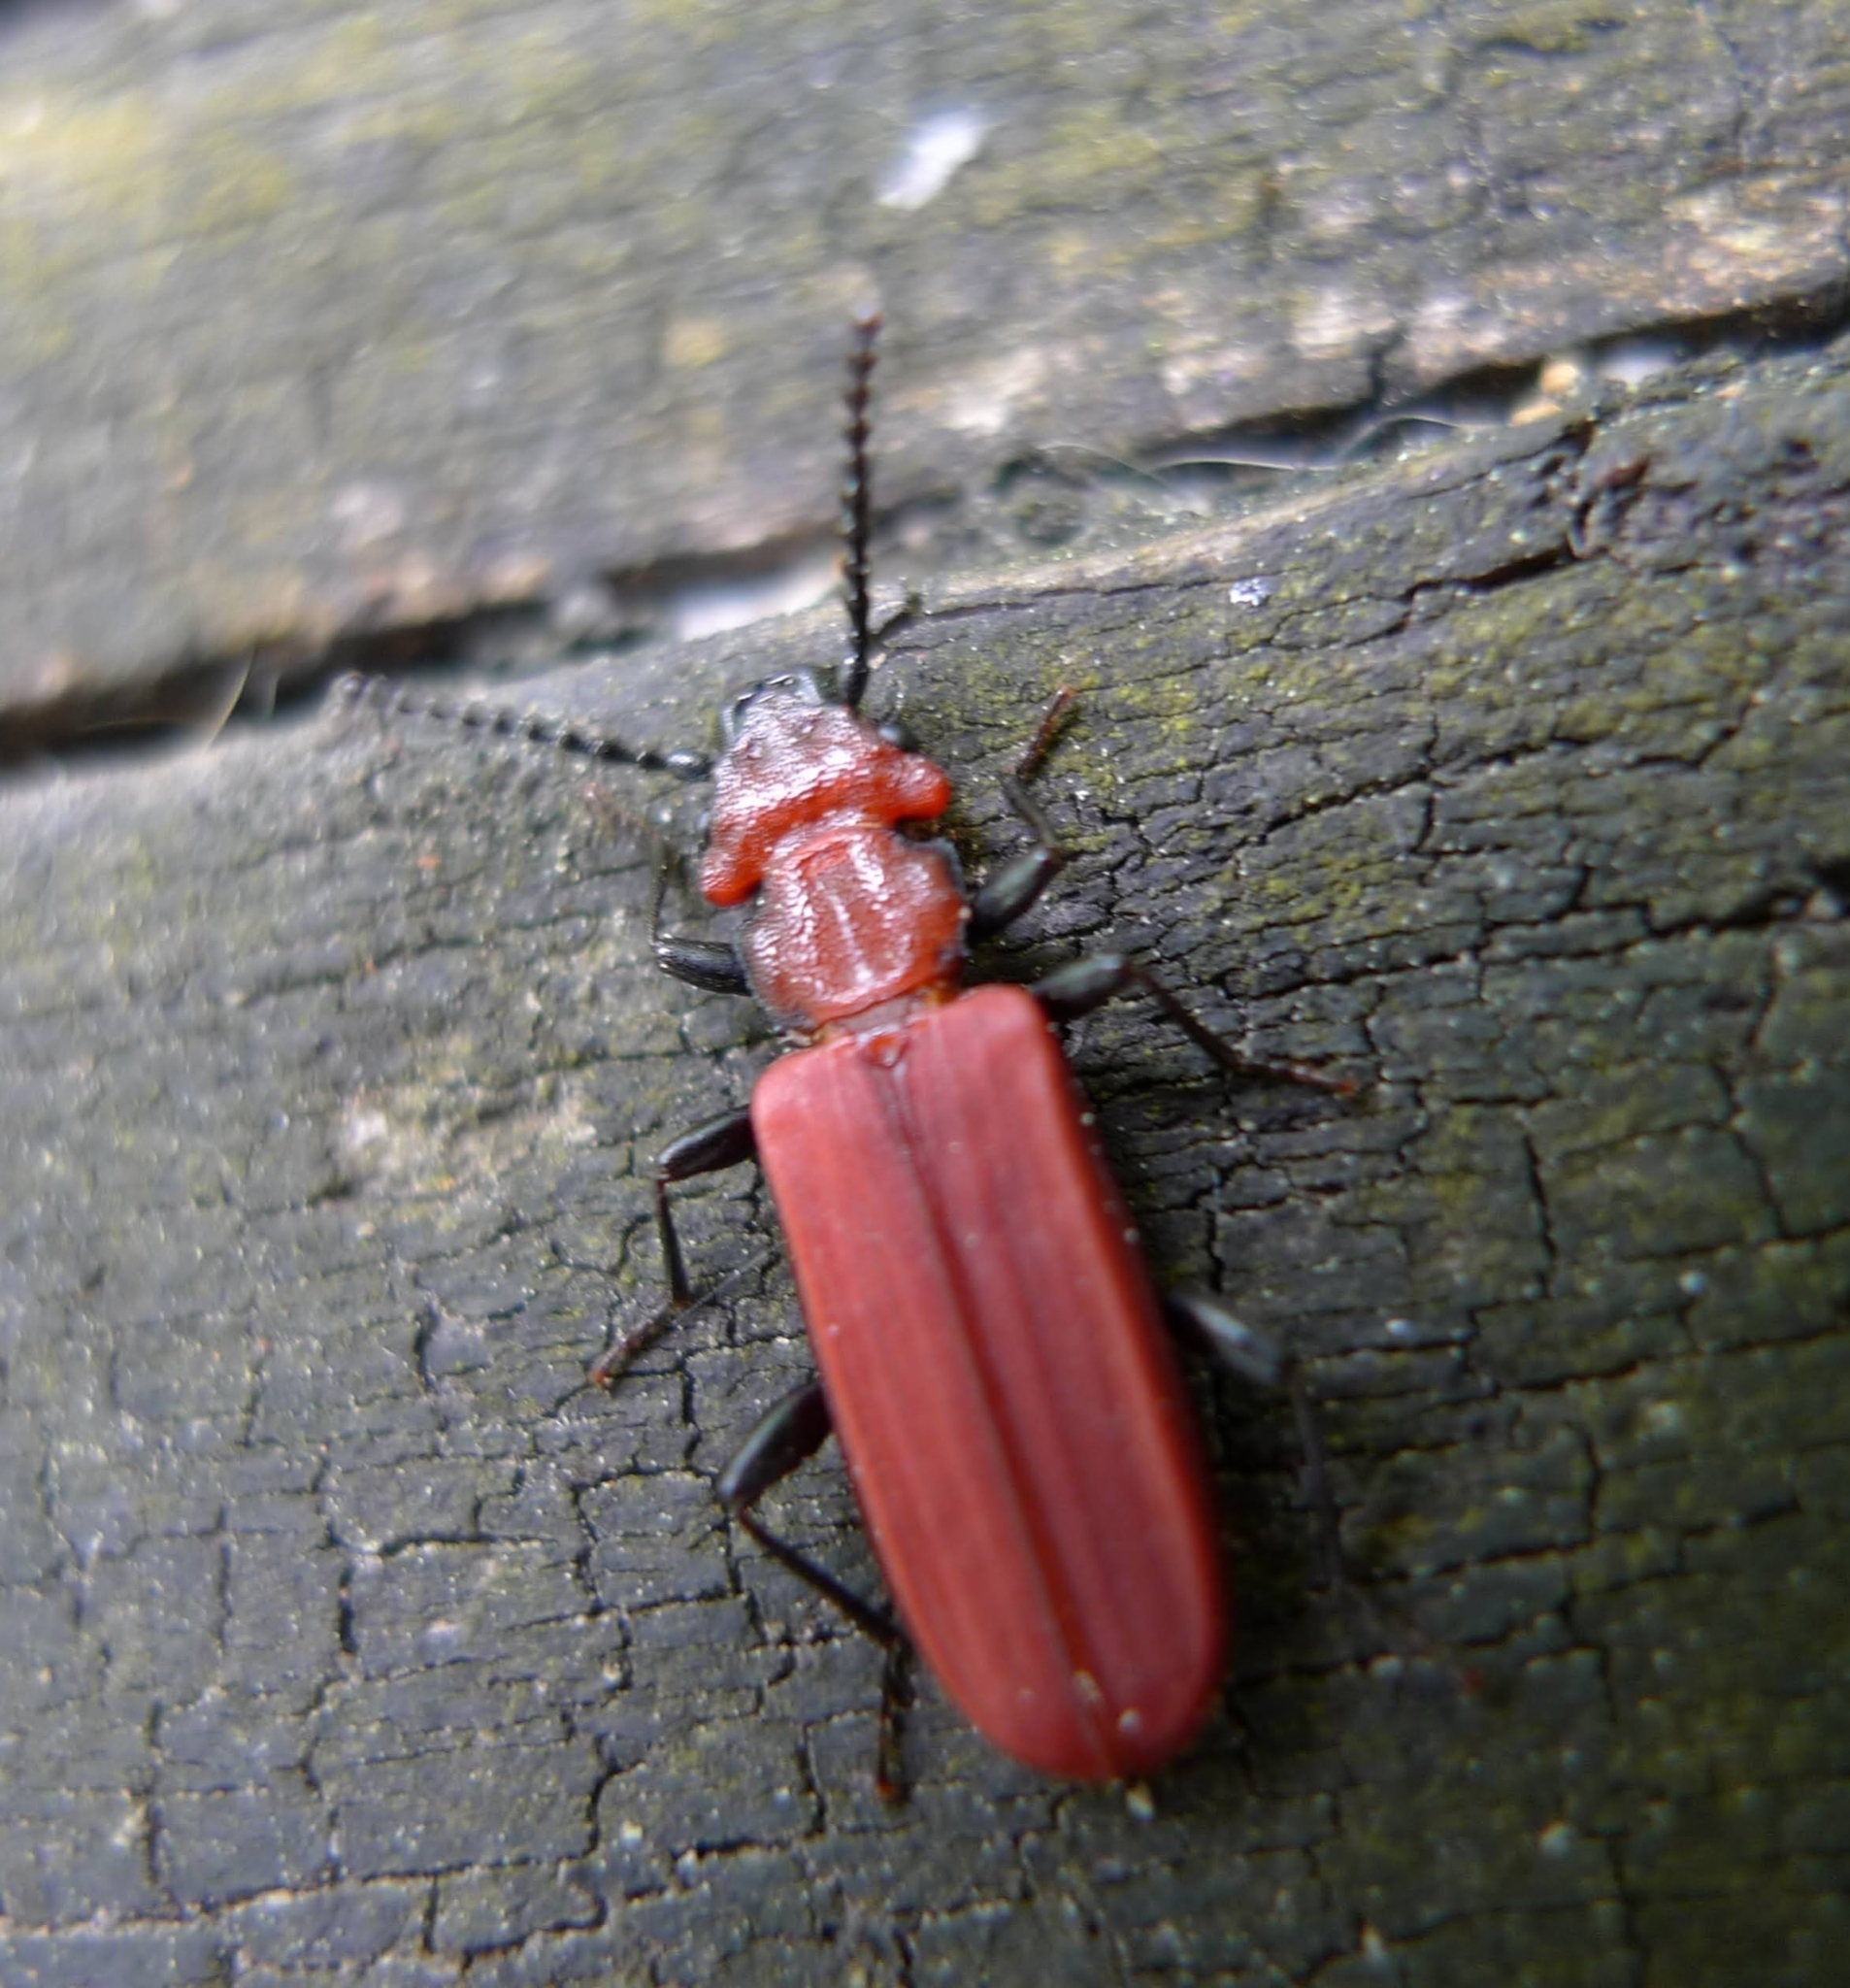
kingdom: Animalia
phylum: Arthropoda
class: Insecta
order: Coleoptera
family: Cucujidae
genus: Cucujus
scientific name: Cucujus cinnaberinus
